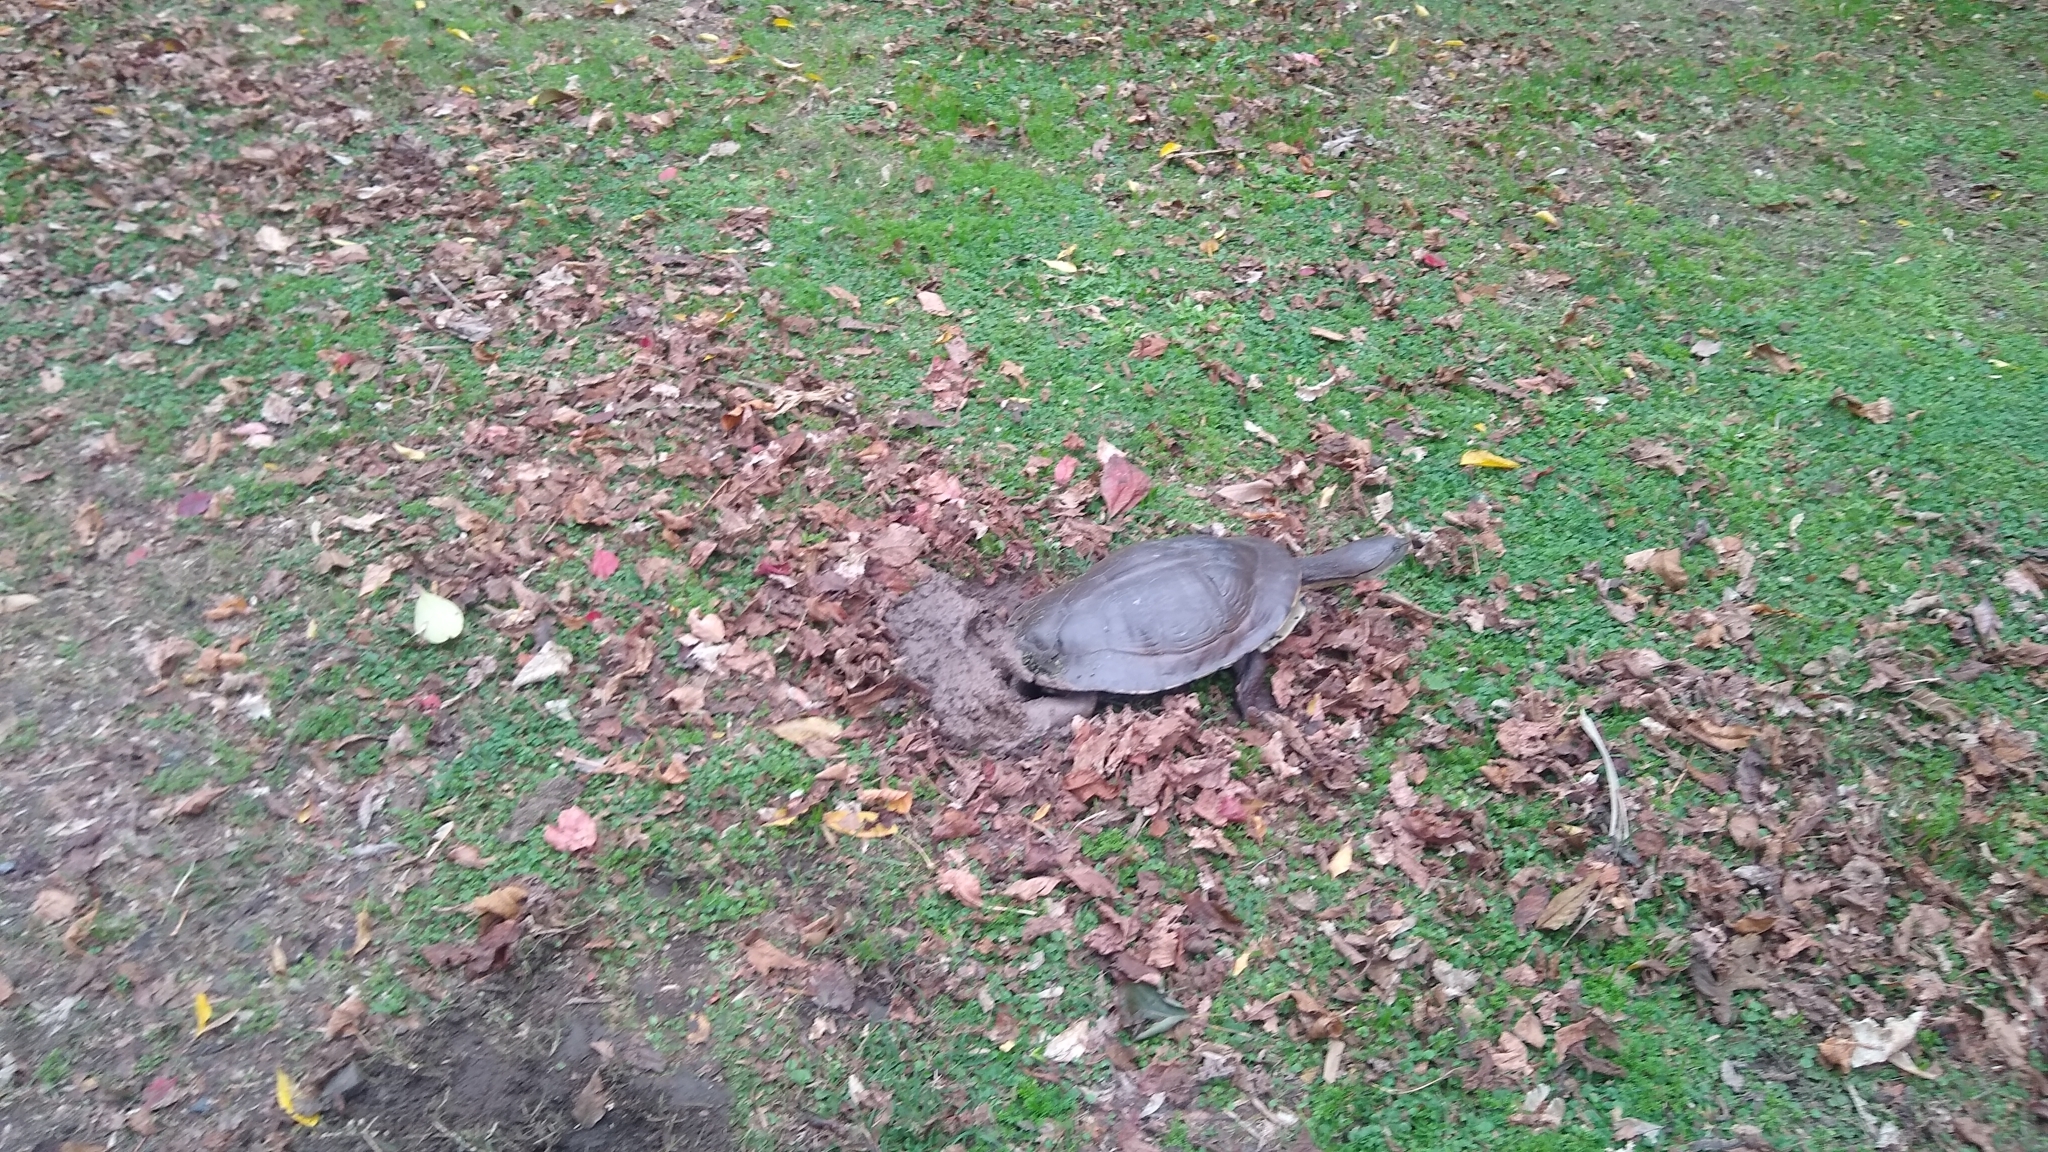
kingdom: Animalia
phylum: Chordata
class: Testudines
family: Chelidae
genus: Phrynops
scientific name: Phrynops hilarii
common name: Side-necked turtle of saint hillaire
